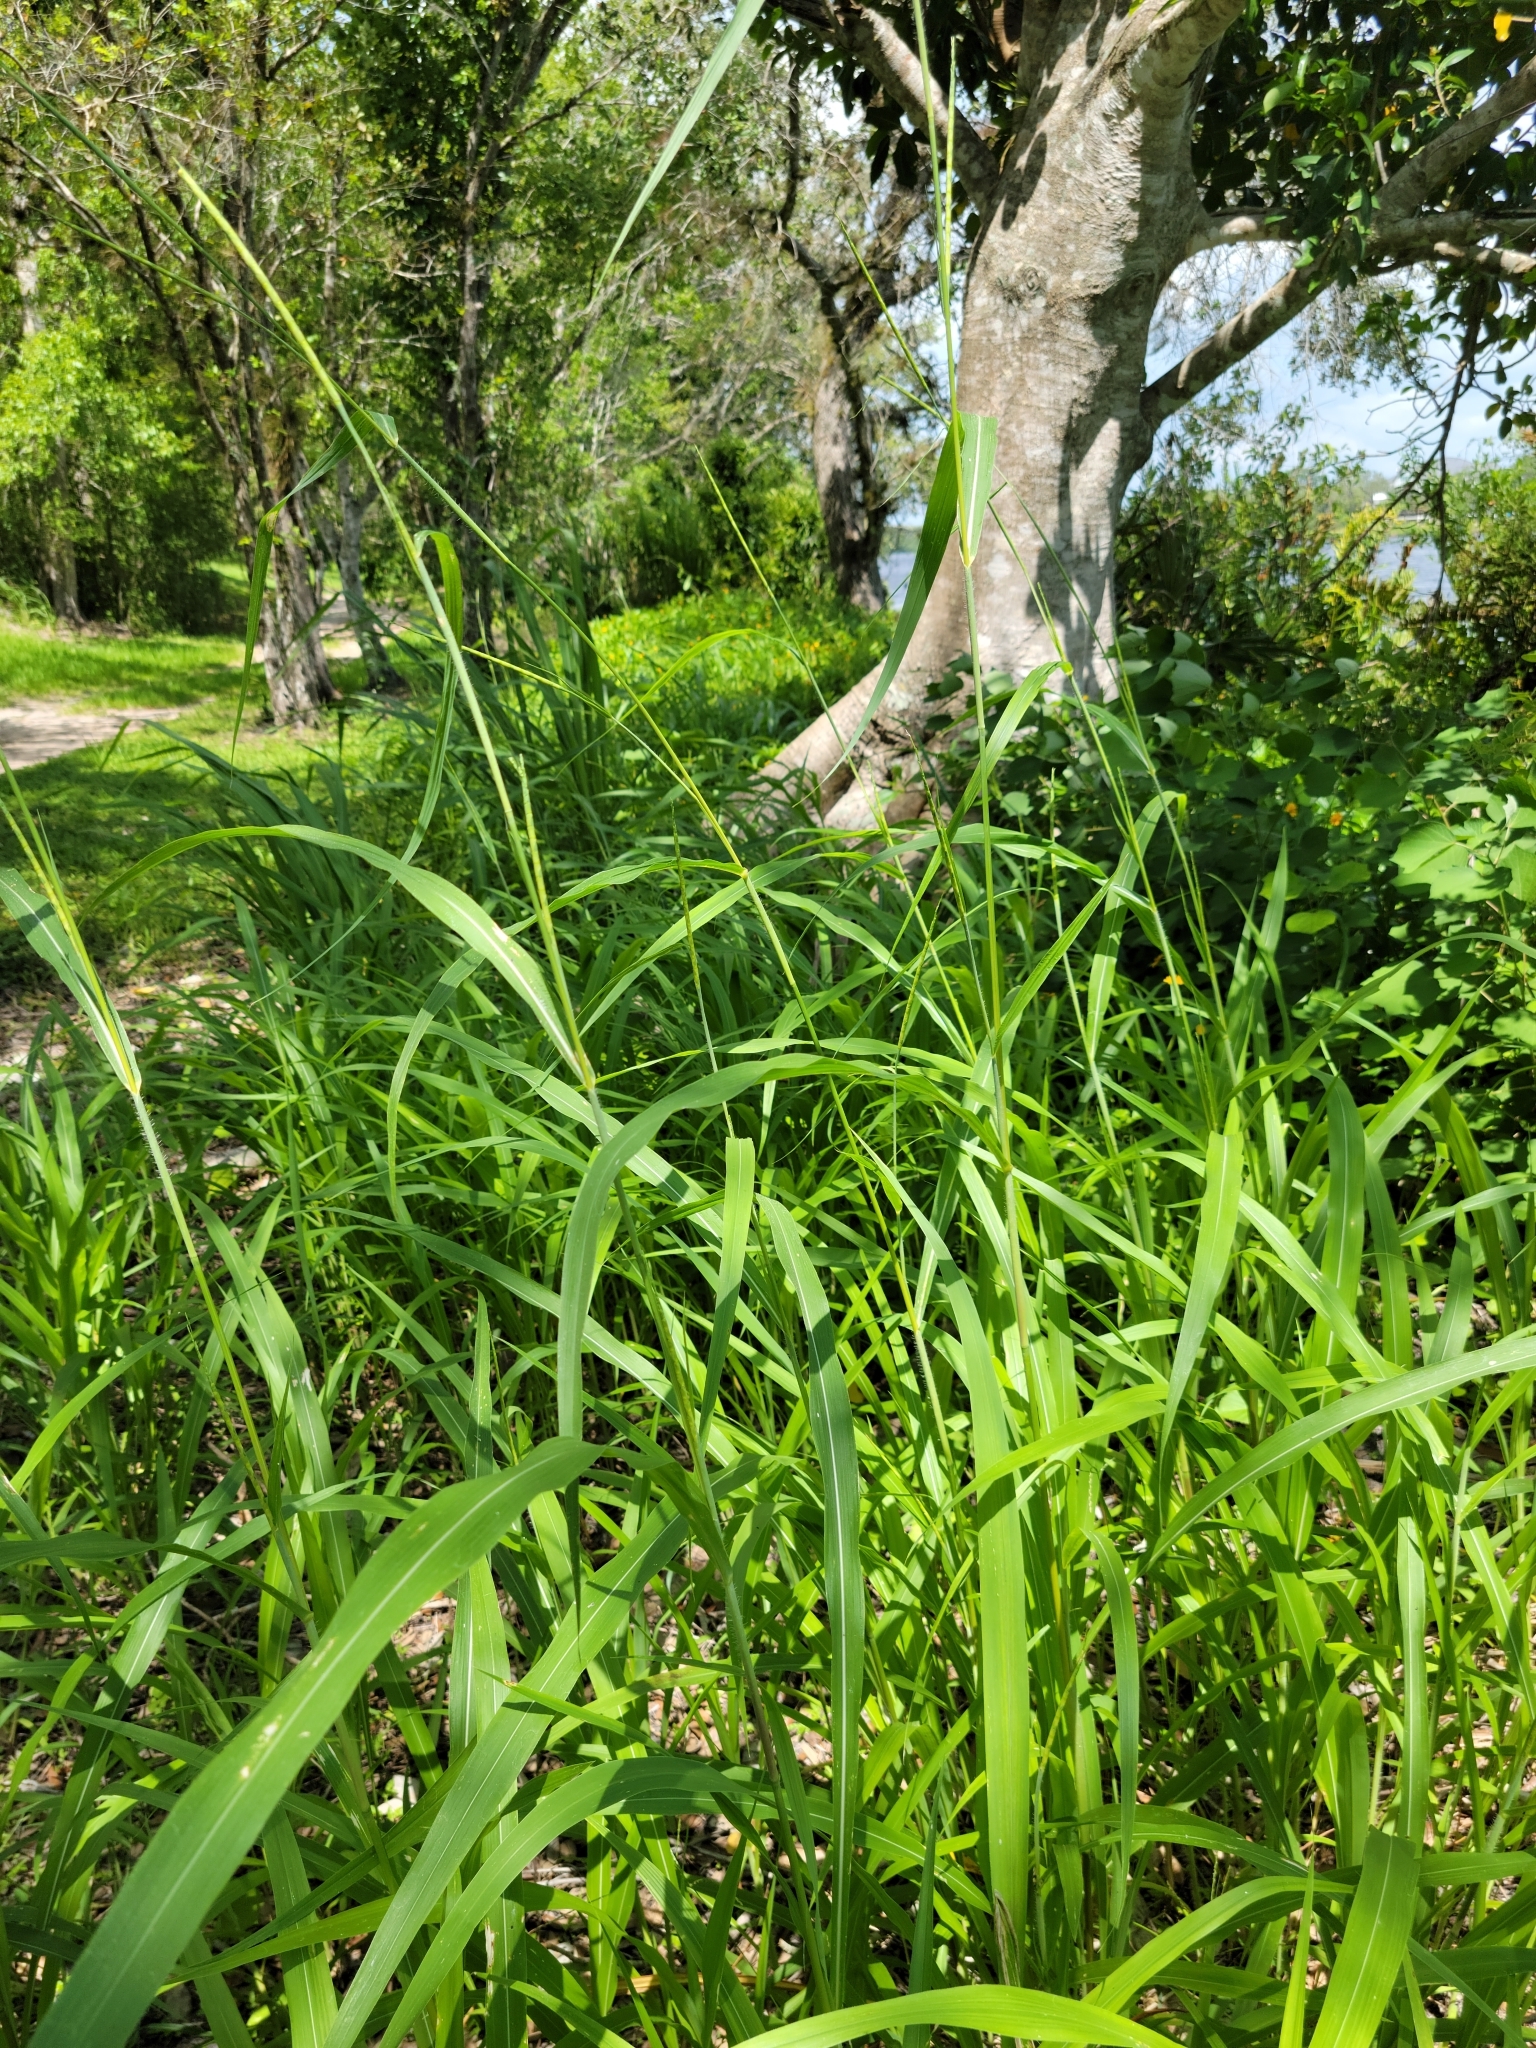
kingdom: Plantae
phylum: Tracheophyta
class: Liliopsida
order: Poales
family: Poaceae
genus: Rottboellia
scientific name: Rottboellia cochinchinensis
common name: Itchgrass
